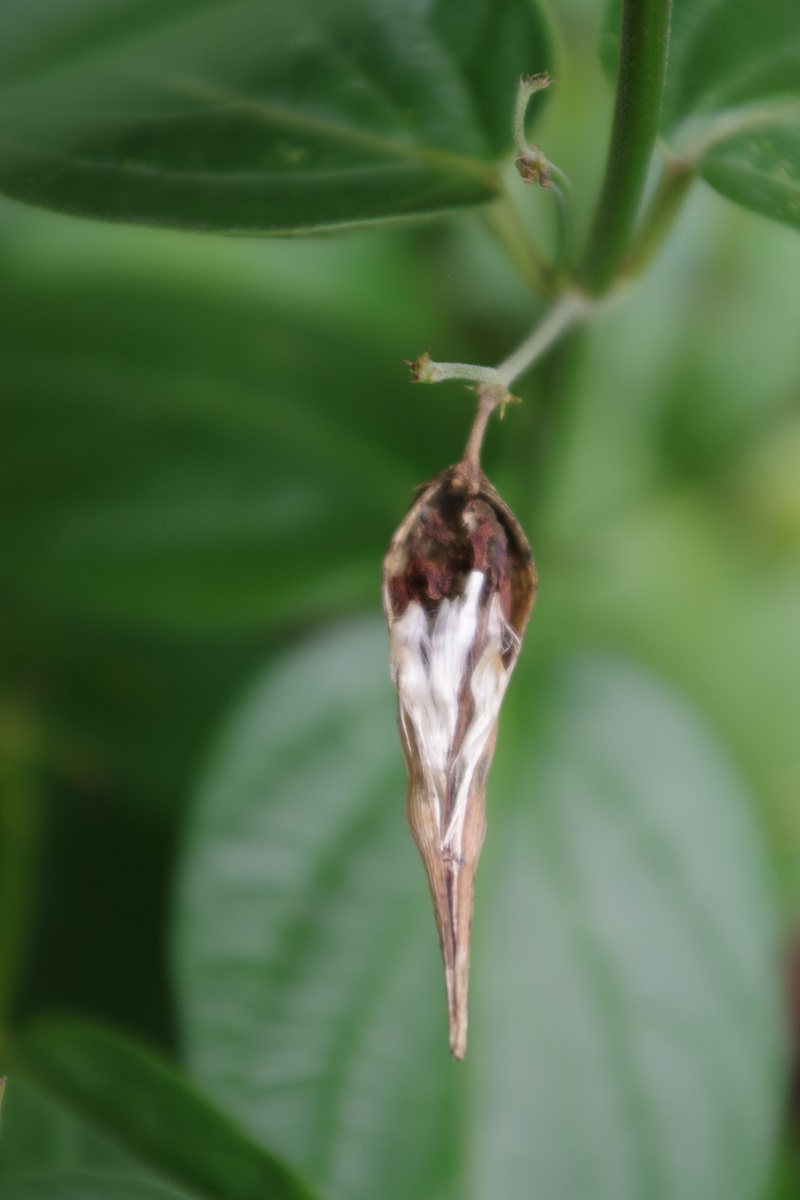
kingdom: Plantae
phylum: Tracheophyta
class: Magnoliopsida
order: Gentianales
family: Apocynaceae
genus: Vincetoxicum
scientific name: Vincetoxicum hirundinaria
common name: White swallowwort
